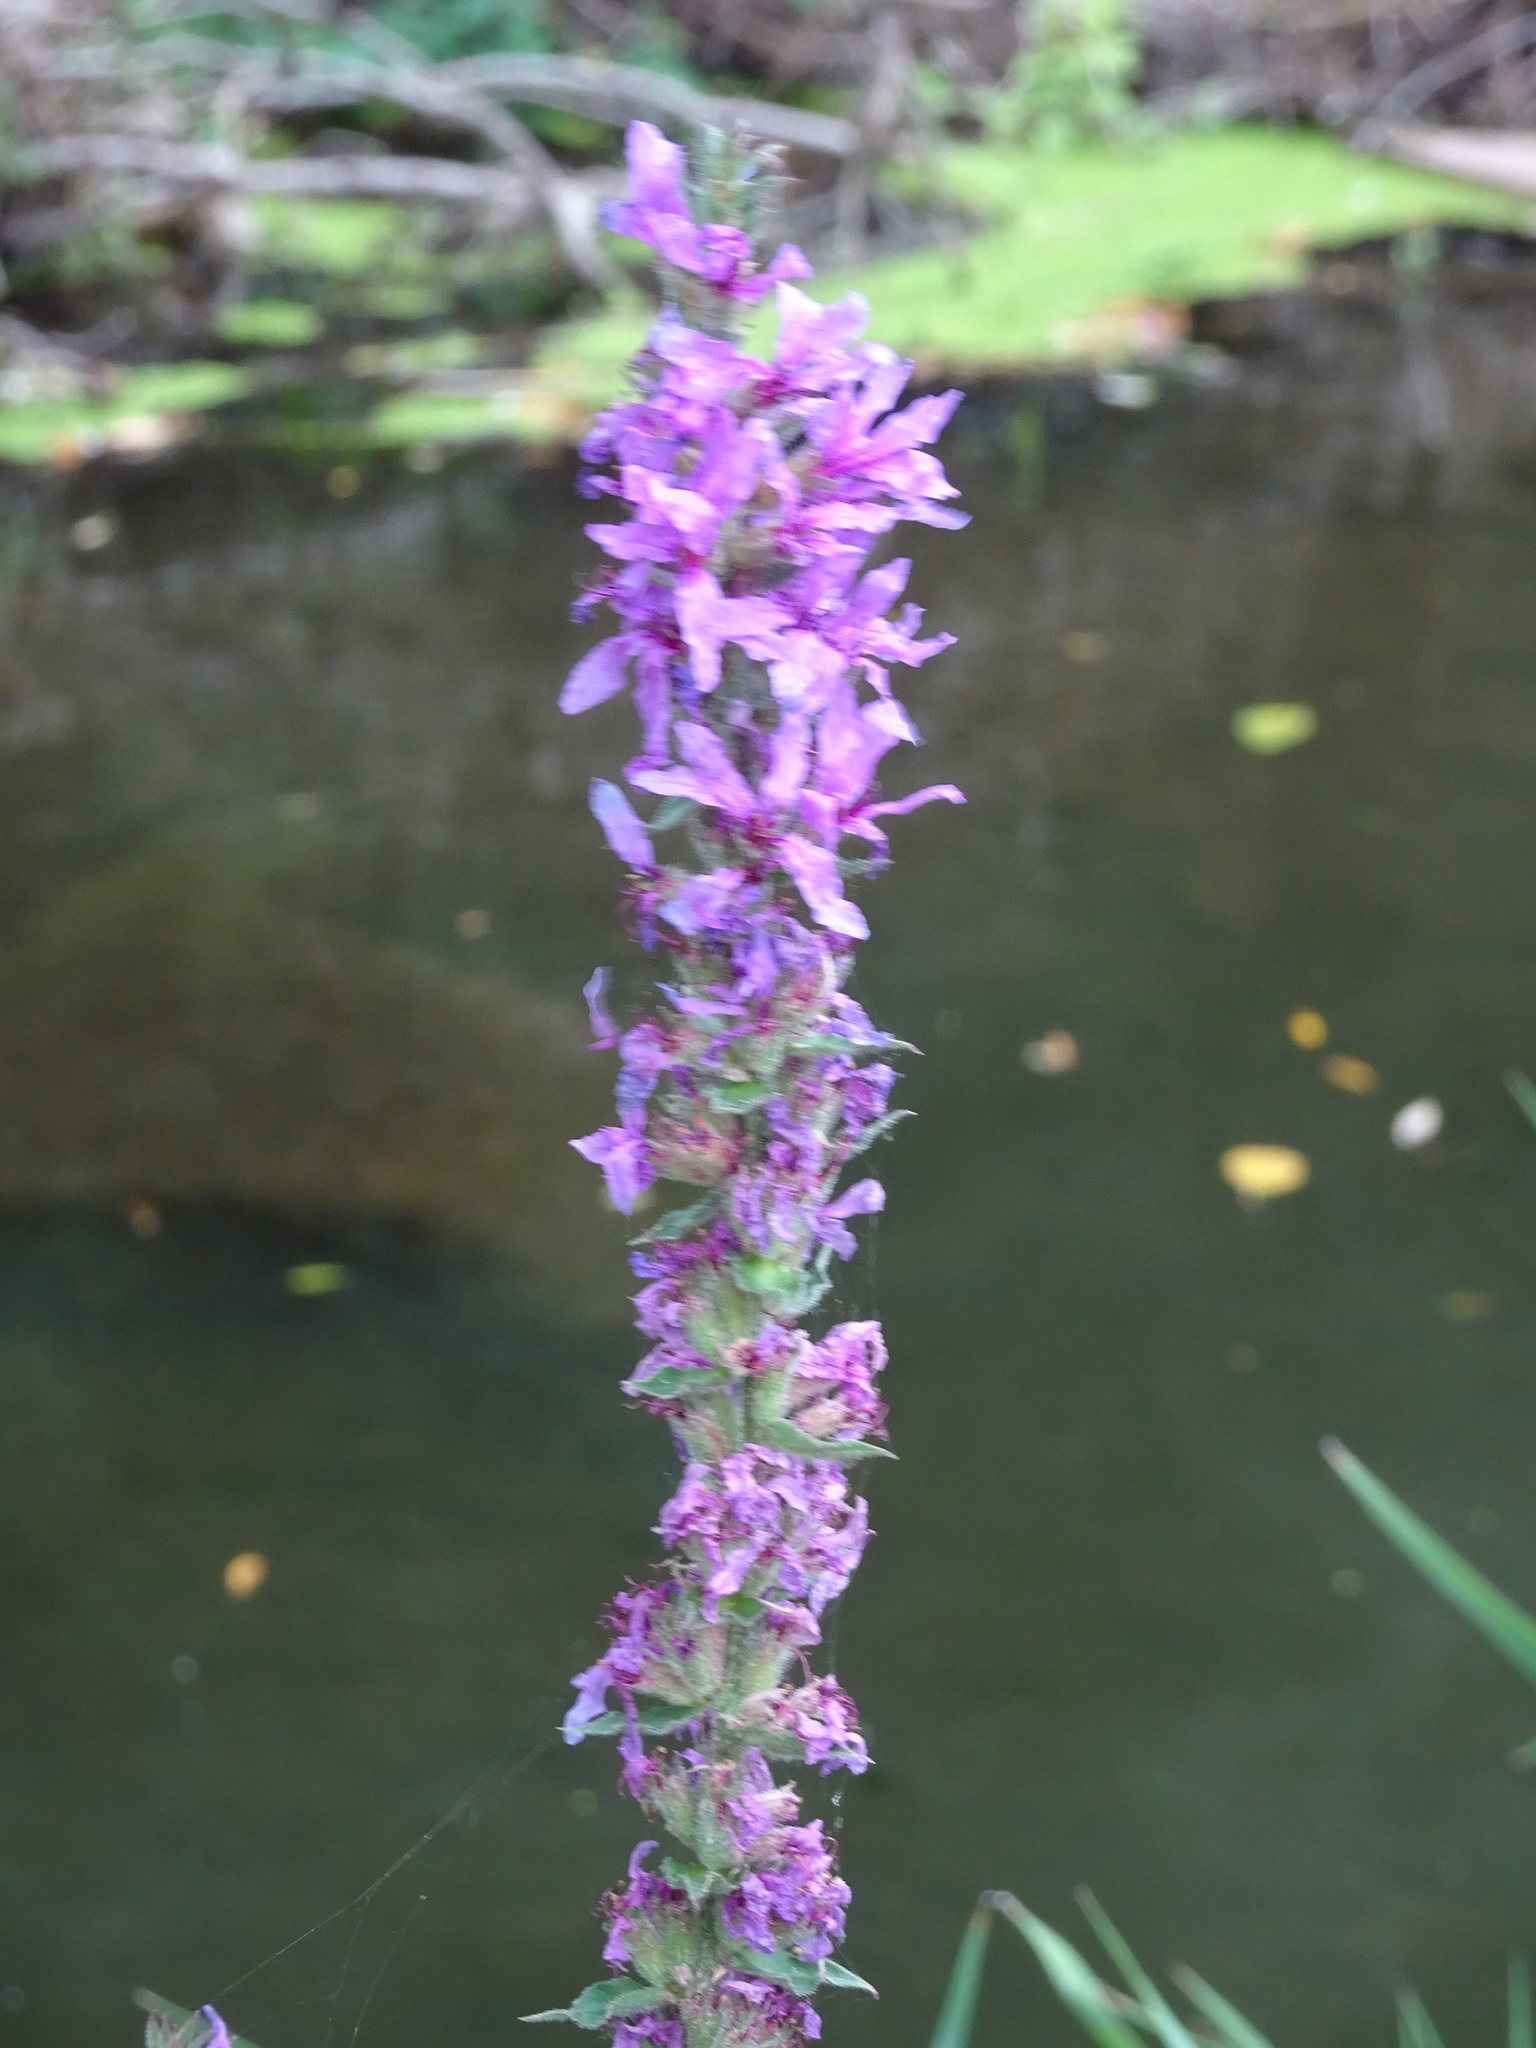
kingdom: Plantae
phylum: Tracheophyta
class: Magnoliopsida
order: Myrtales
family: Lythraceae
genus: Lythrum
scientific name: Lythrum salicaria
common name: Purple loosestrife
